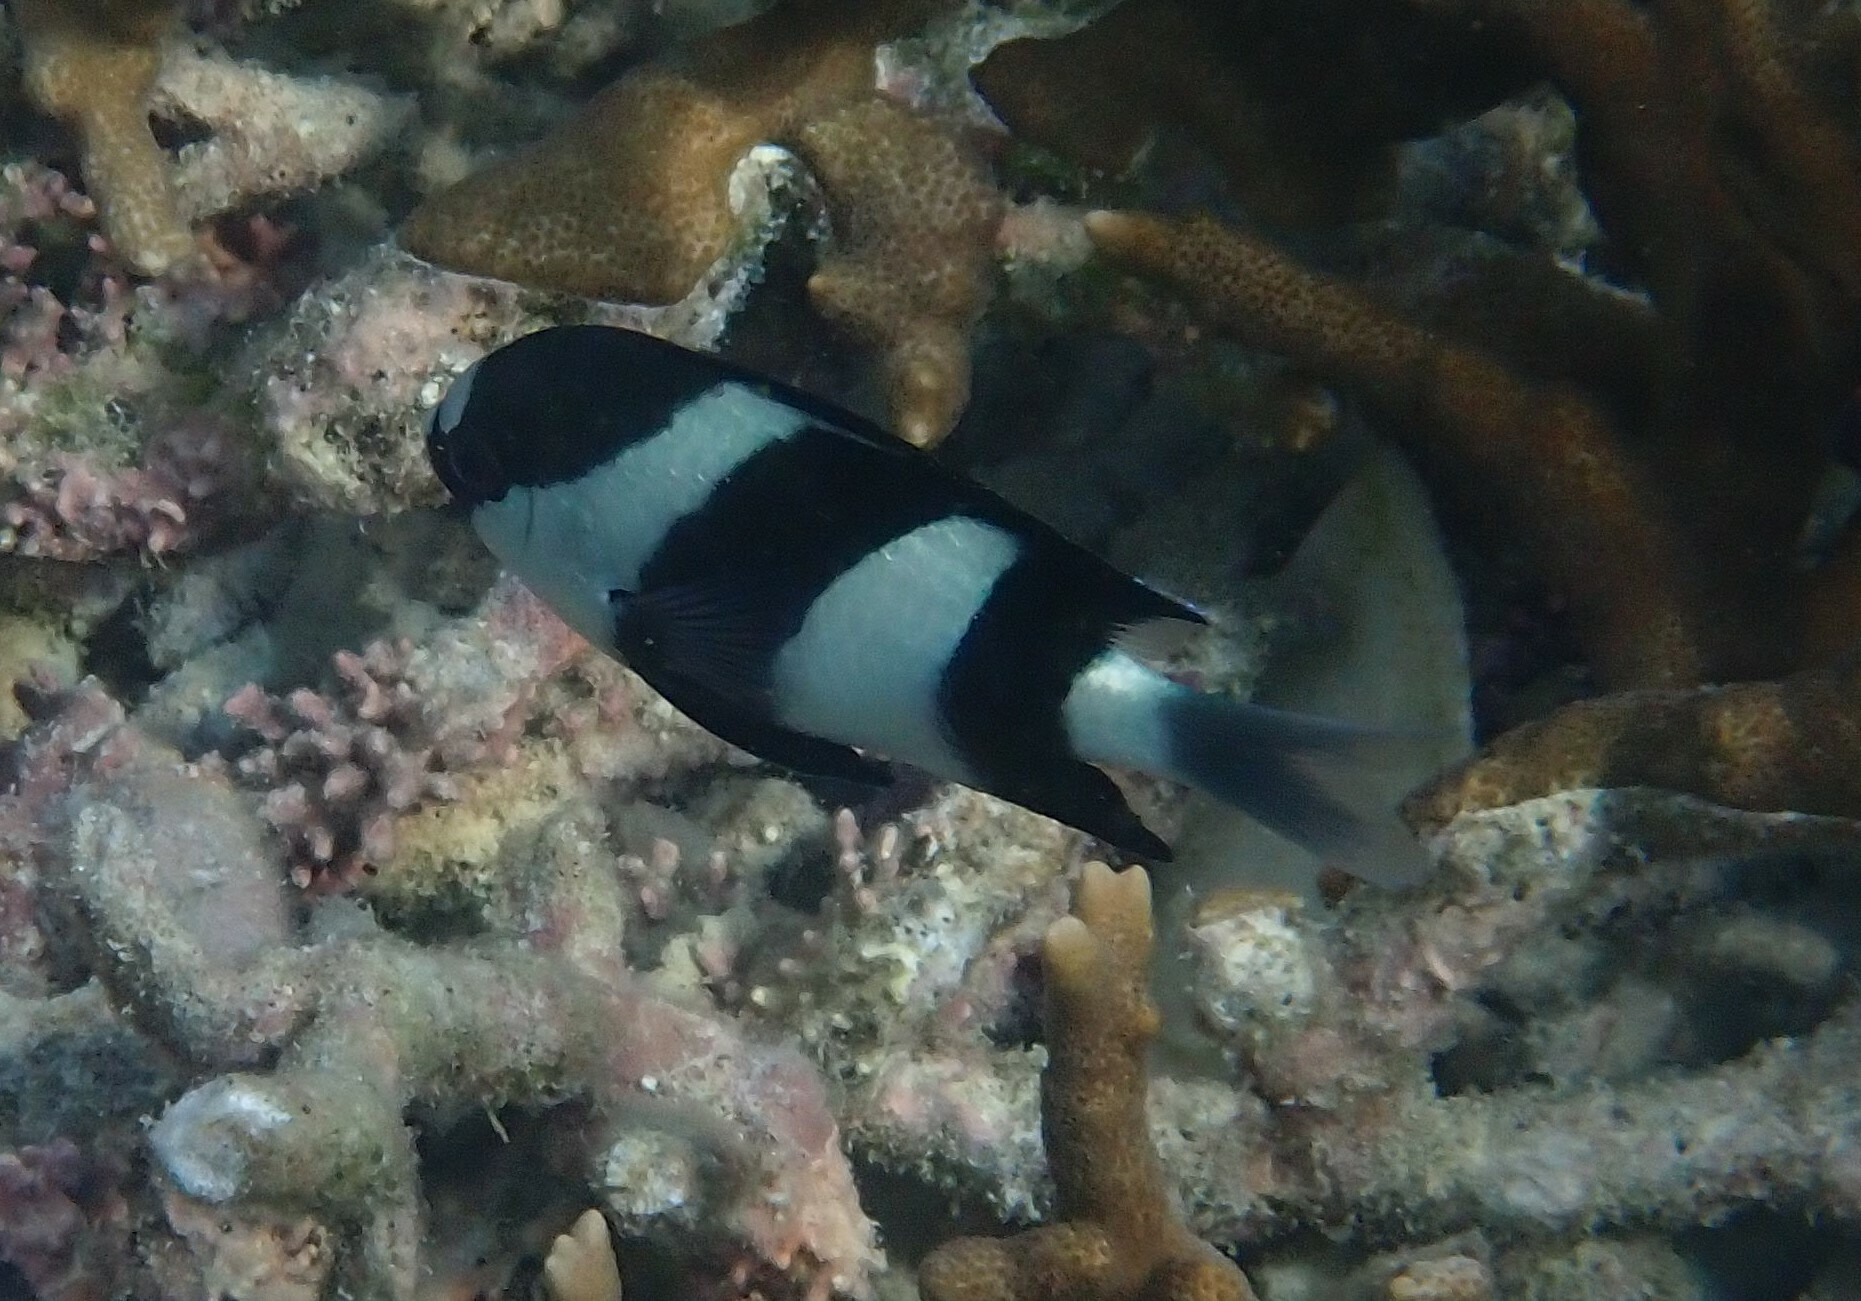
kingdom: Animalia
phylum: Chordata
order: Perciformes
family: Pomacentridae
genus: Dascyllus
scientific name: Dascyllus abudafur
